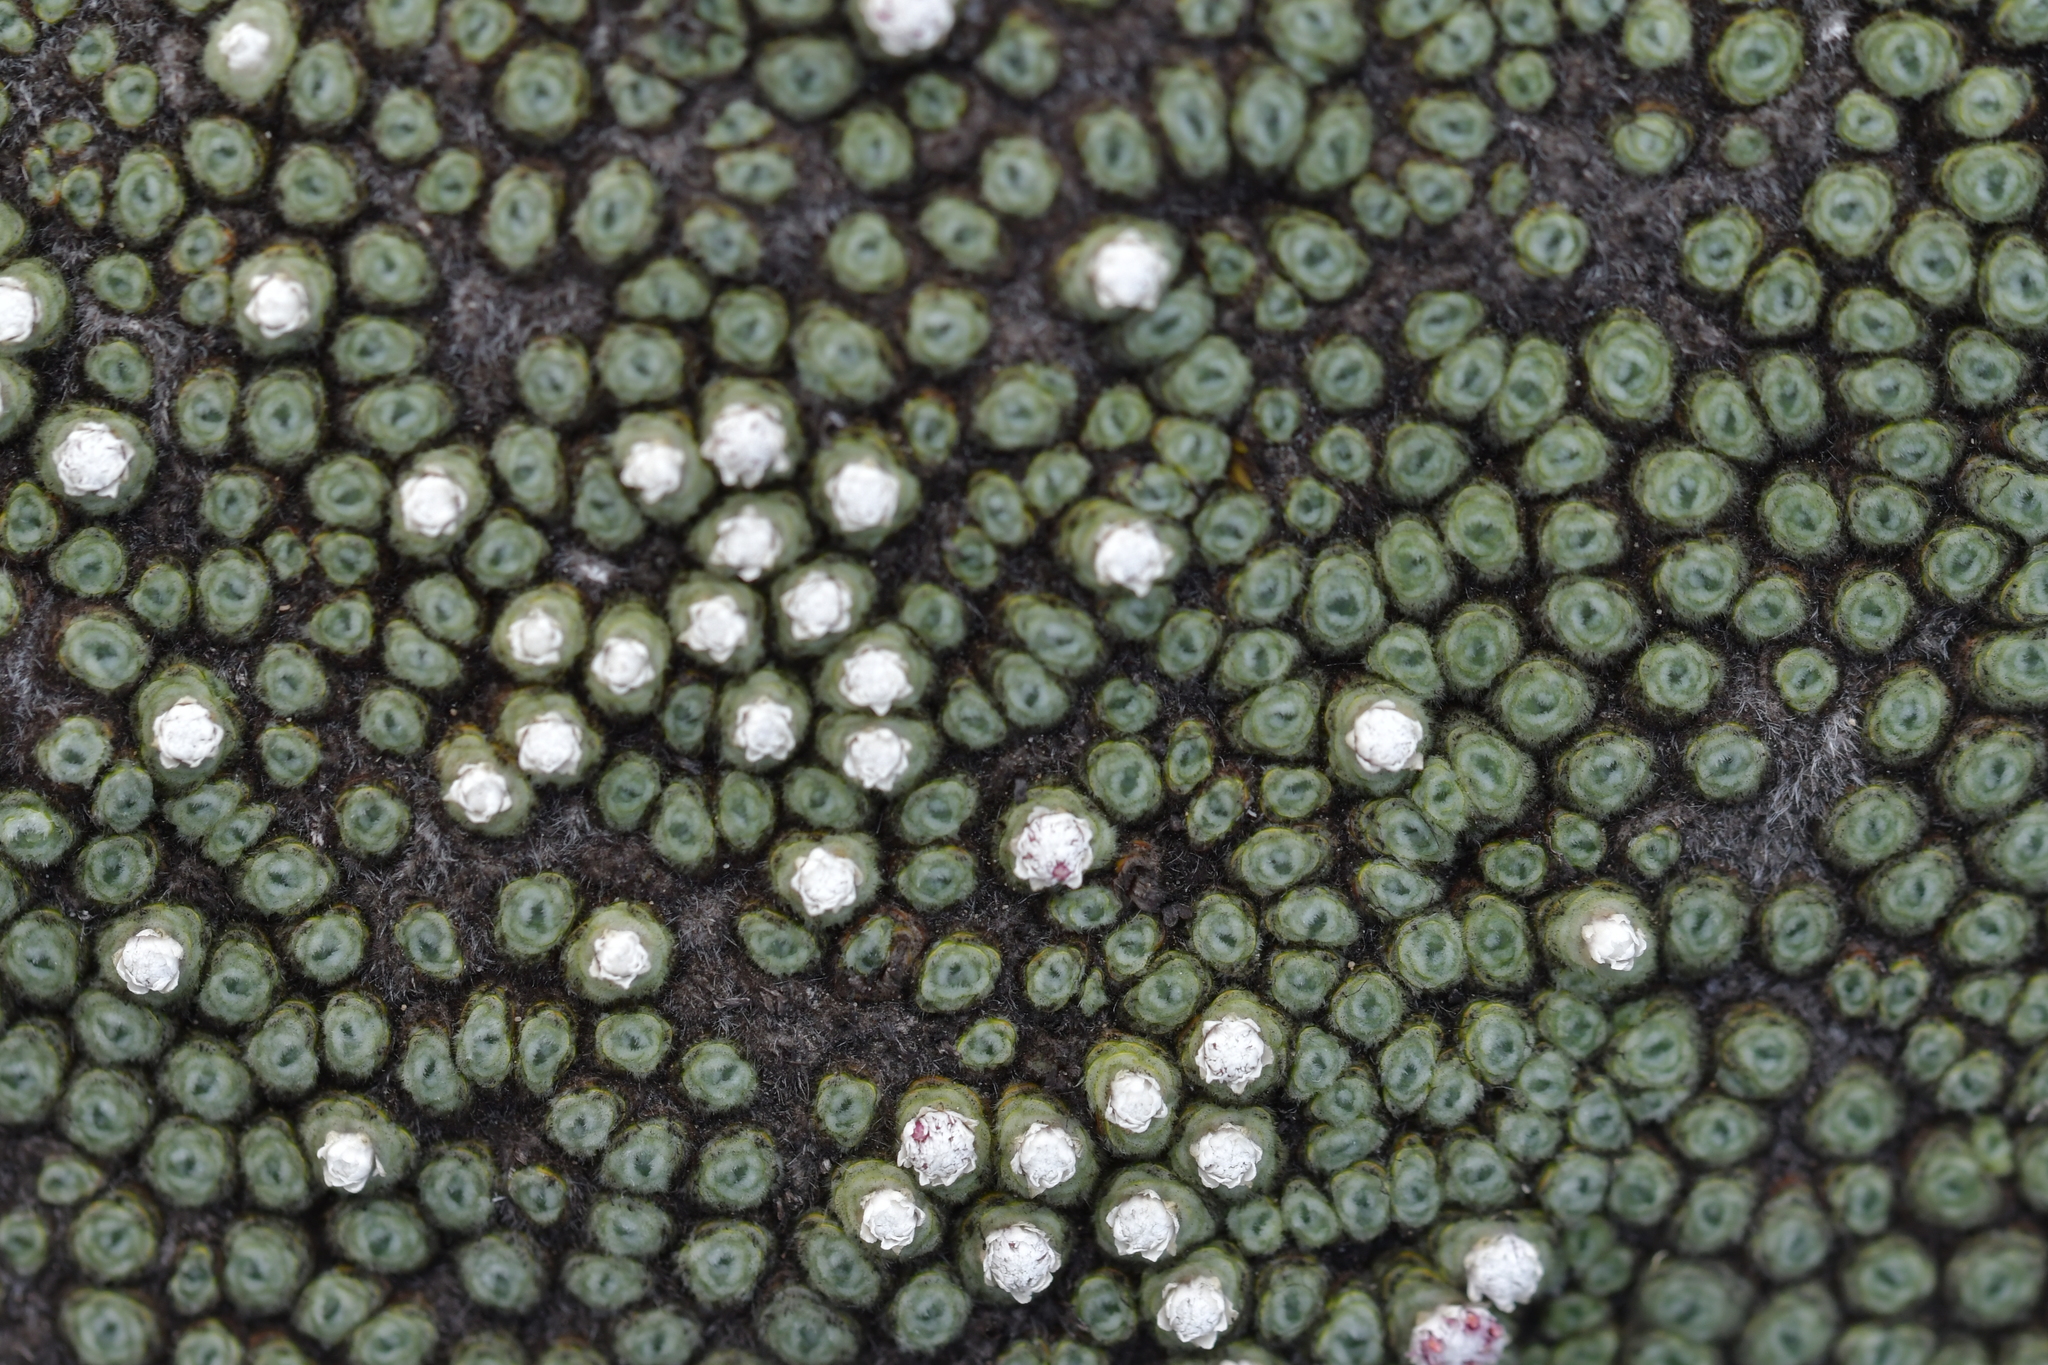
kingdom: Plantae
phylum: Tracheophyta
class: Magnoliopsida
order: Asterales
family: Asteraceae
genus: Raoulia
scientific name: Raoulia rubra
